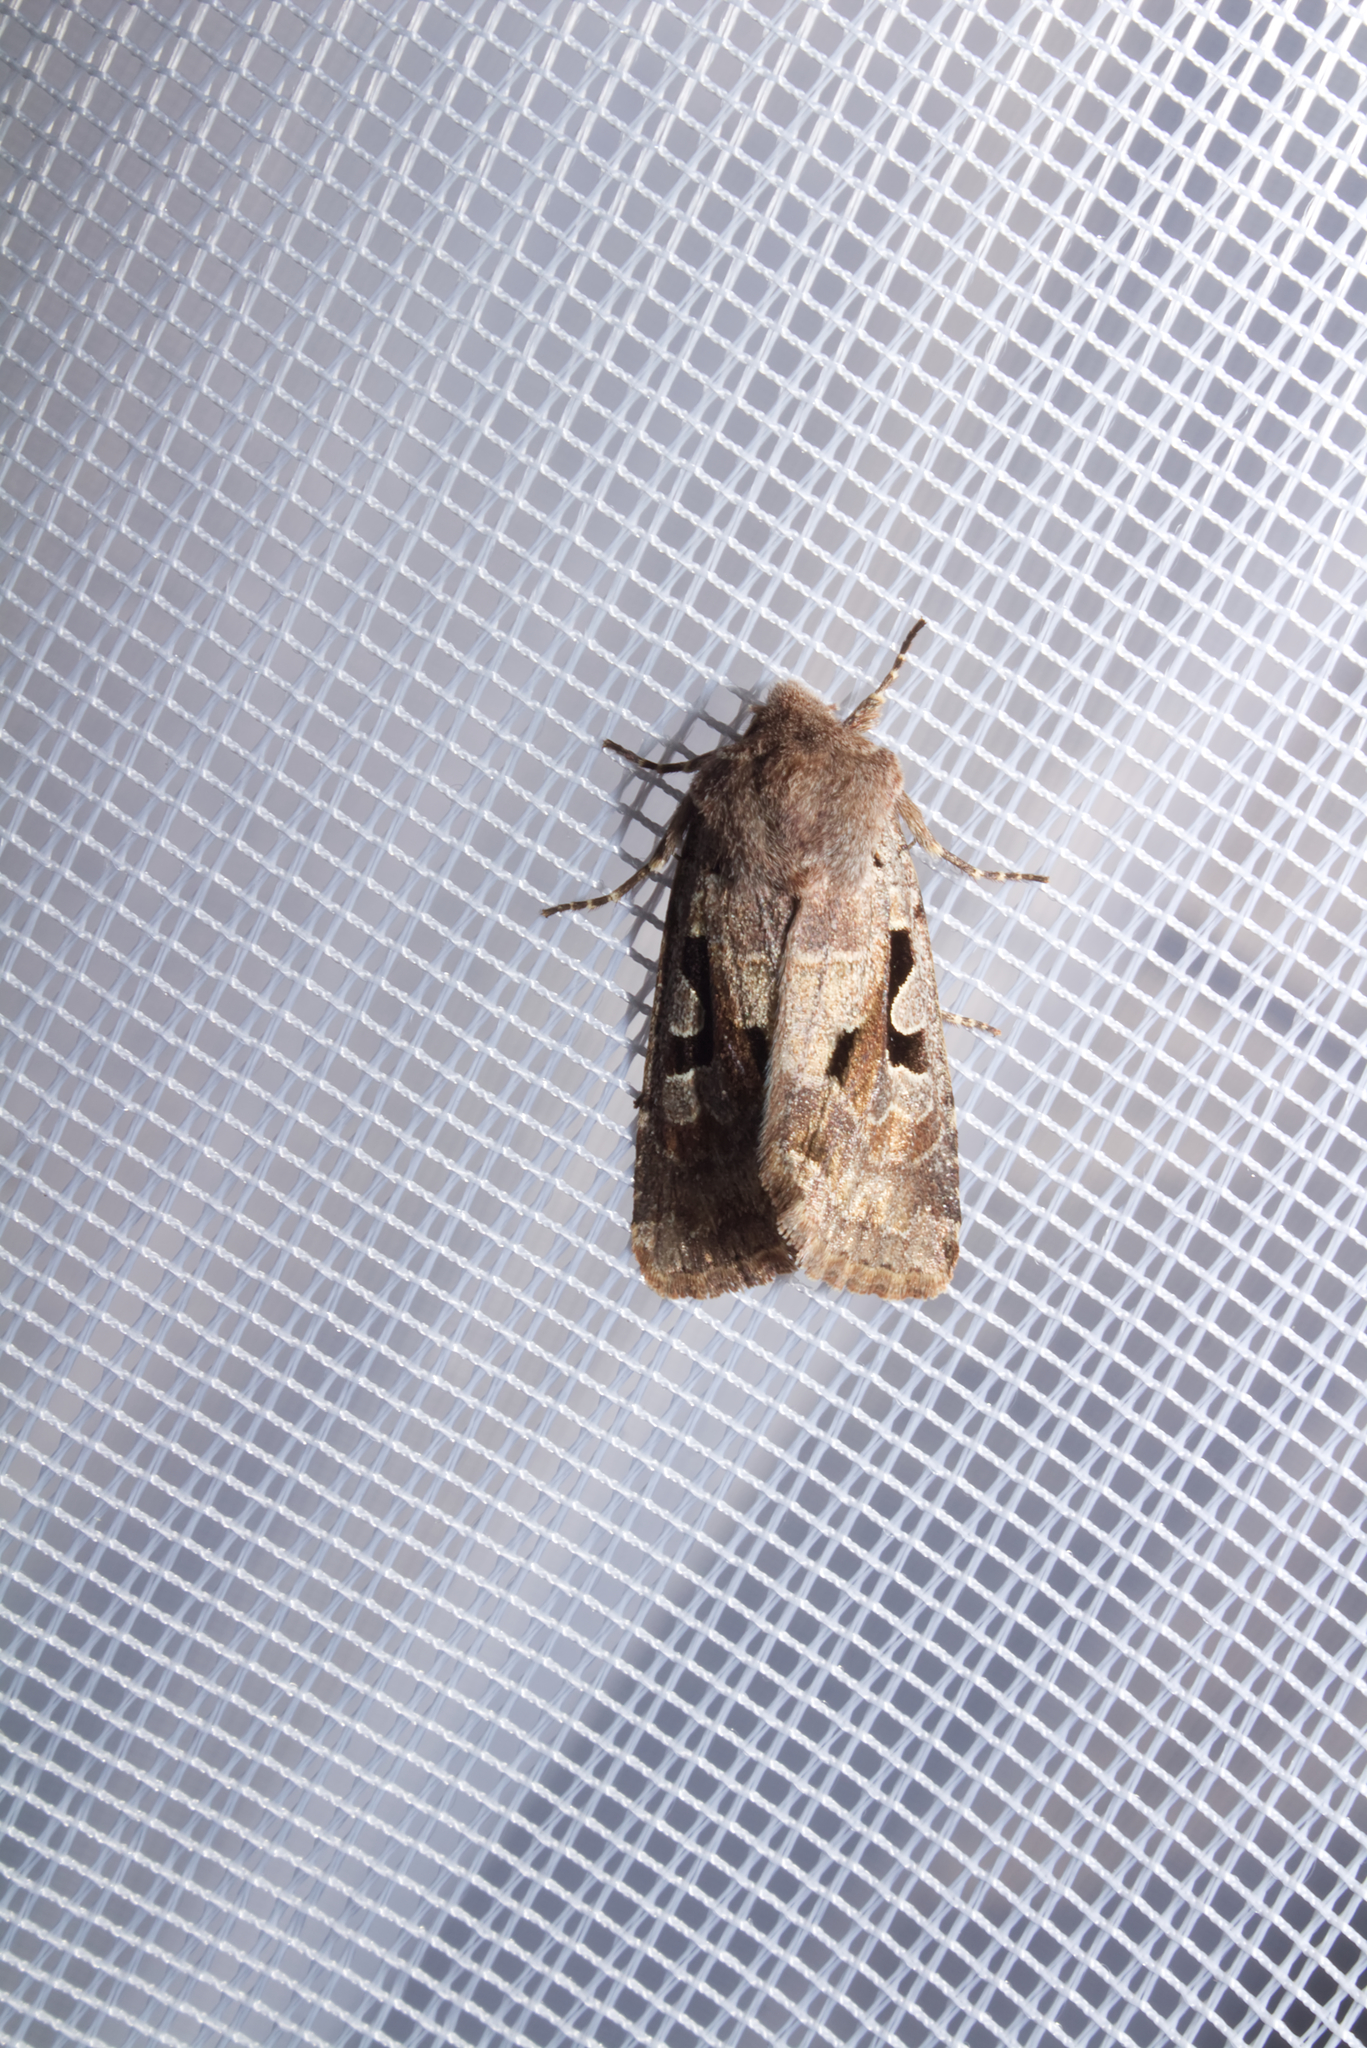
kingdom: Animalia
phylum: Arthropoda
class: Insecta
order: Lepidoptera
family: Noctuidae
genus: Orthosia
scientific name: Orthosia gothica
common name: Hebrew character
